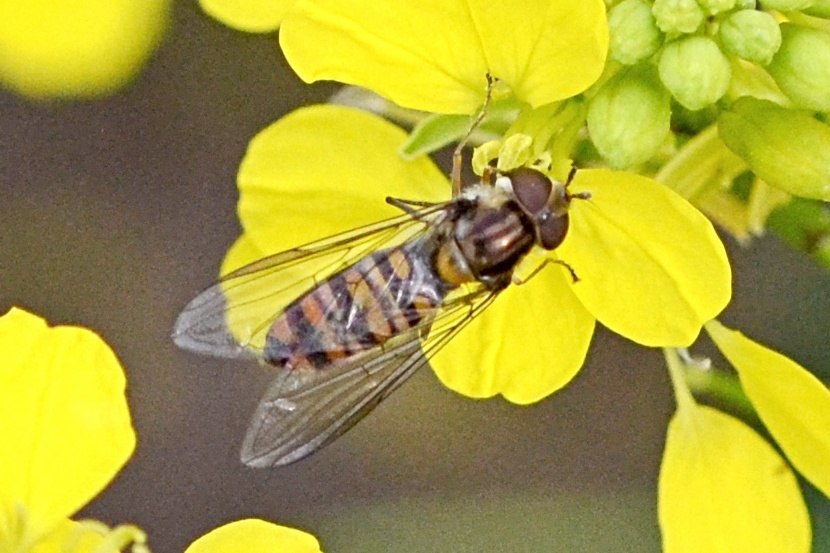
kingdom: Animalia
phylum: Arthropoda
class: Insecta
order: Diptera
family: Syrphidae
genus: Episyrphus
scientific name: Episyrphus balteatus
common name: Marmalade hoverfly
